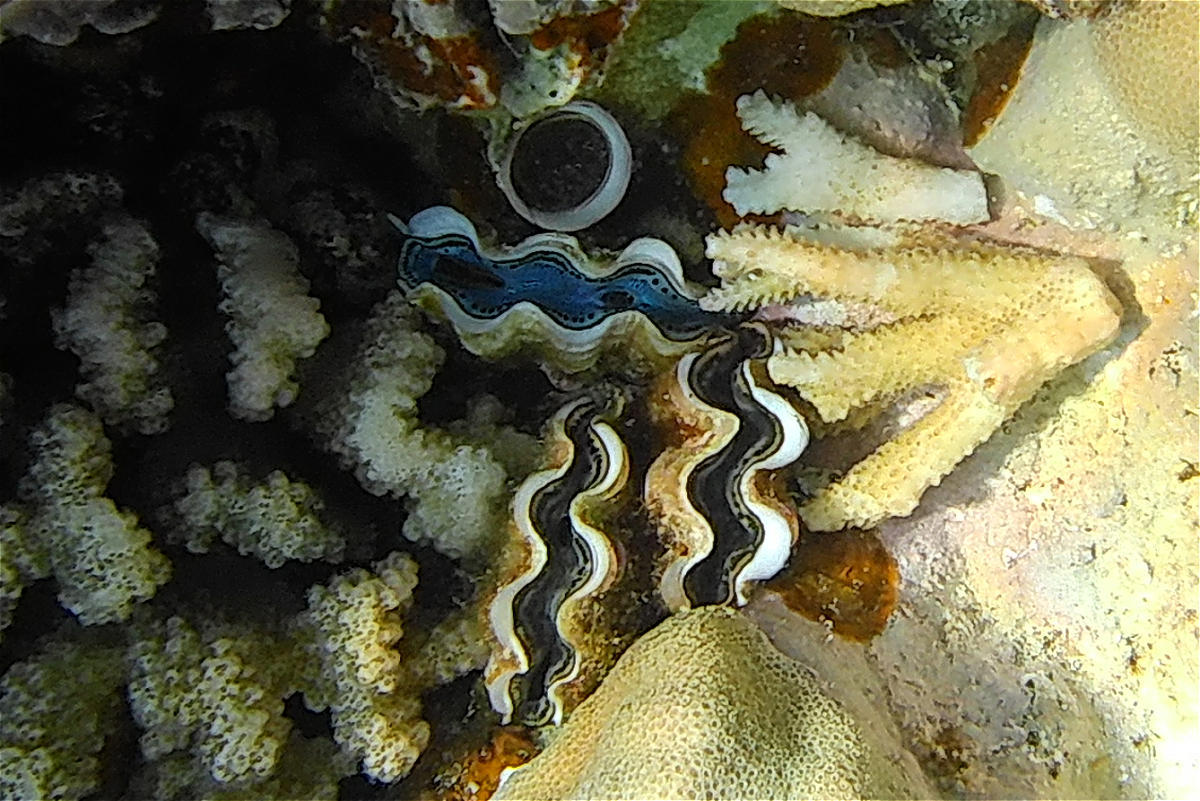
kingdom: Animalia
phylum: Mollusca
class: Bivalvia
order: Cardiida
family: Cardiidae
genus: Tridacna
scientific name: Tridacna maxima
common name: Small giant clam
